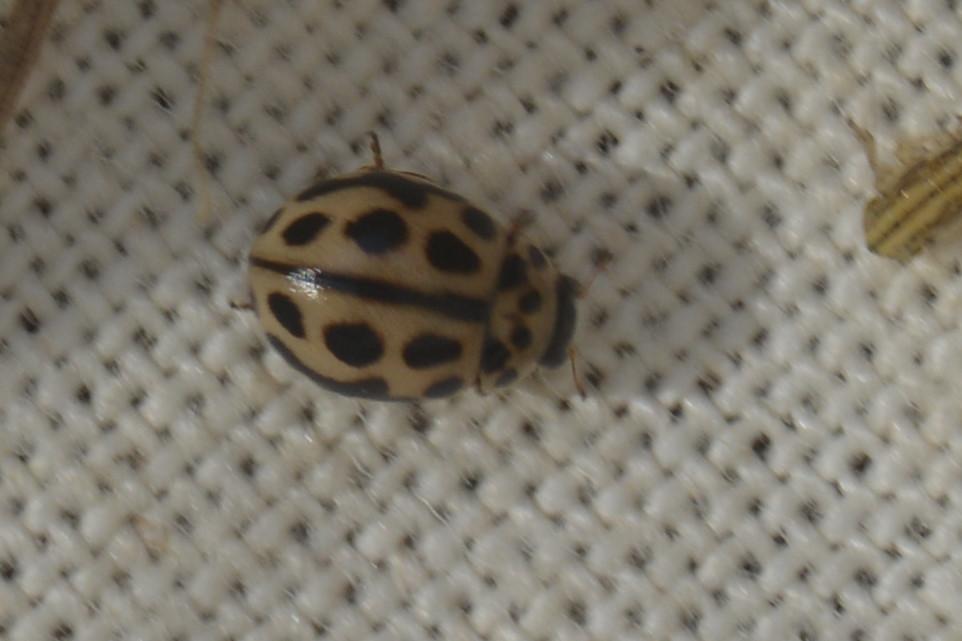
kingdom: Animalia
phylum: Arthropoda
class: Insecta
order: Coleoptera
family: Coccinellidae
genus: Tytthaspis
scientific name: Tytthaspis sedecimpunctata
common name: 16-spot ladybird
